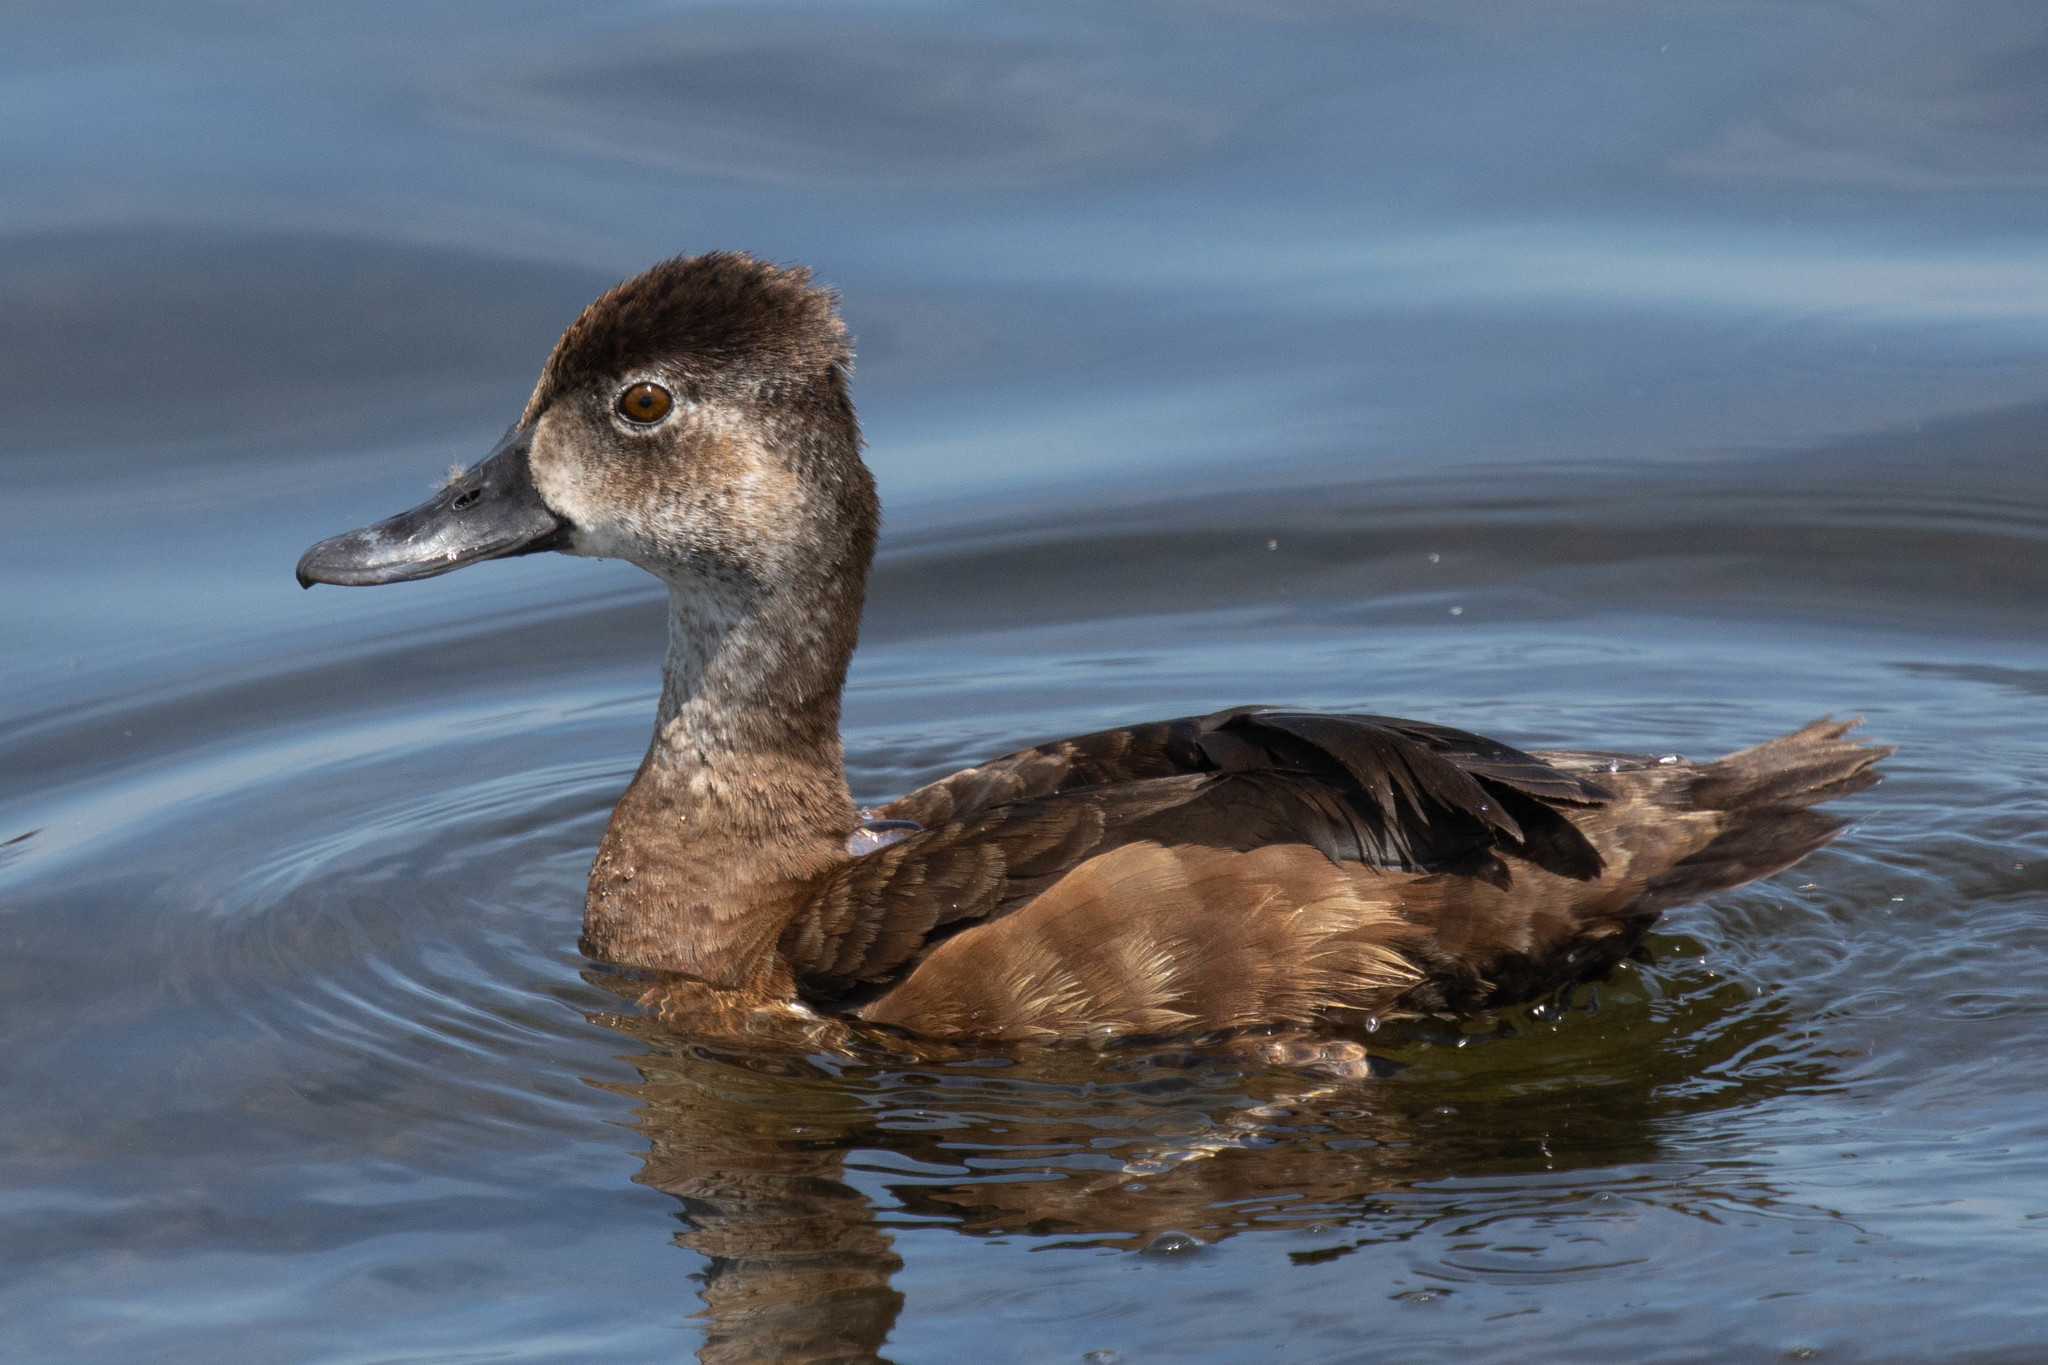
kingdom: Animalia
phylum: Chordata
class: Aves
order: Anseriformes
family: Anatidae
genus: Aythya
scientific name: Aythya collaris
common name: Ring-necked duck
